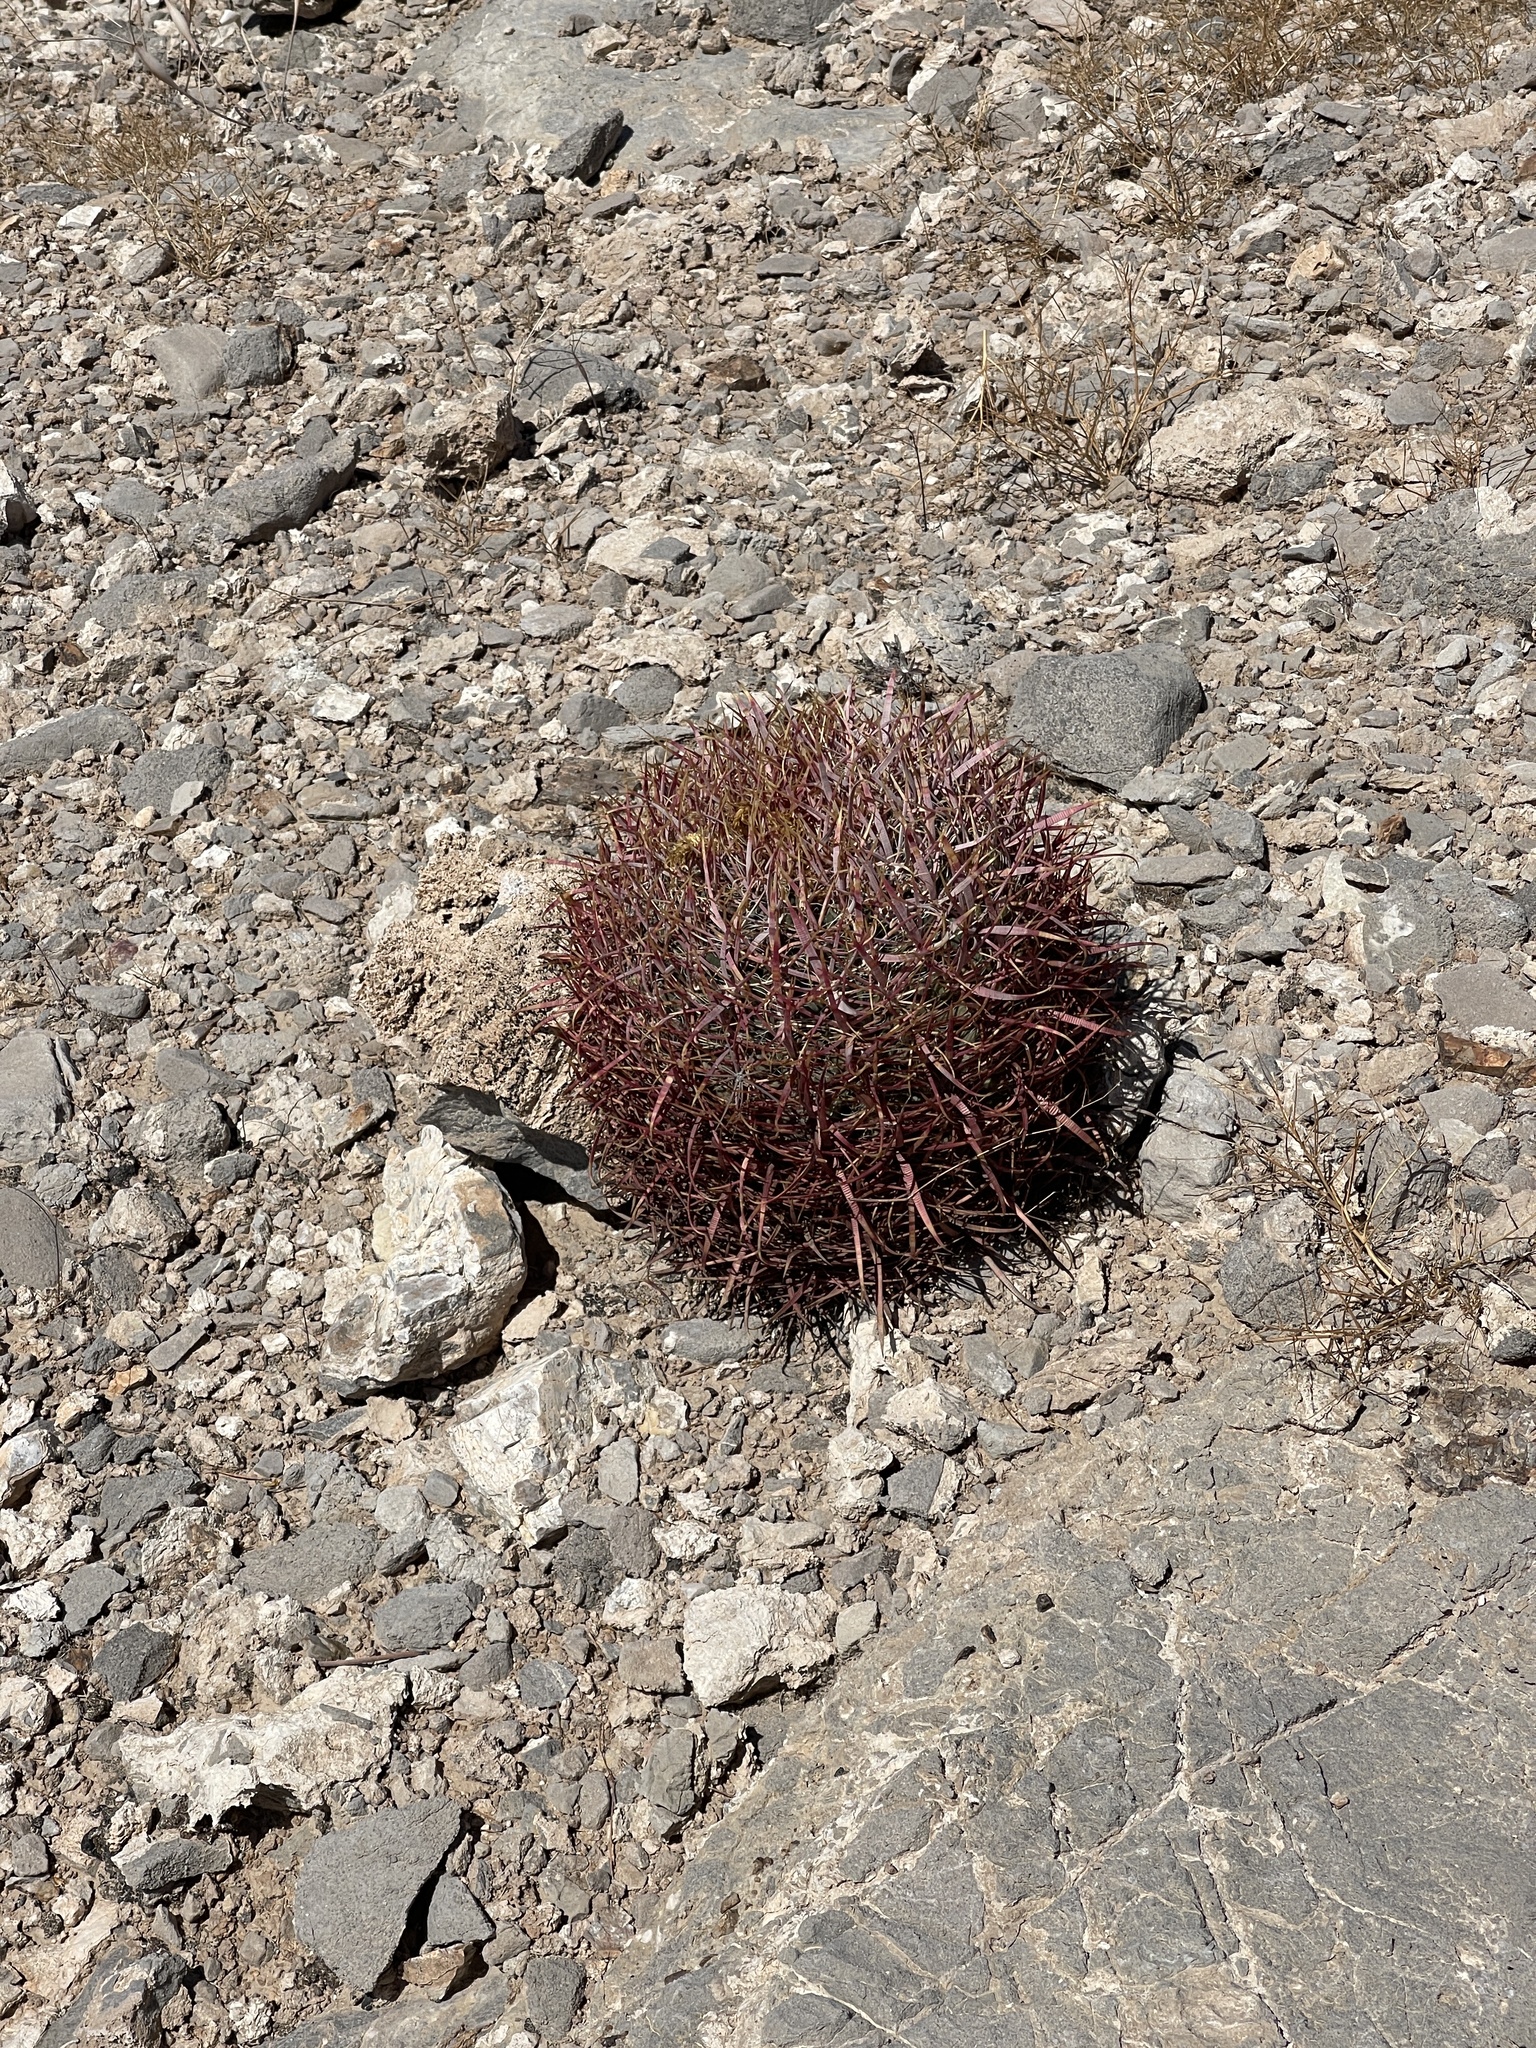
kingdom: Plantae
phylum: Tracheophyta
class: Magnoliopsida
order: Caryophyllales
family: Cactaceae
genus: Ferocactus
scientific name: Ferocactus cylindraceus
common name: California barrel cactus
